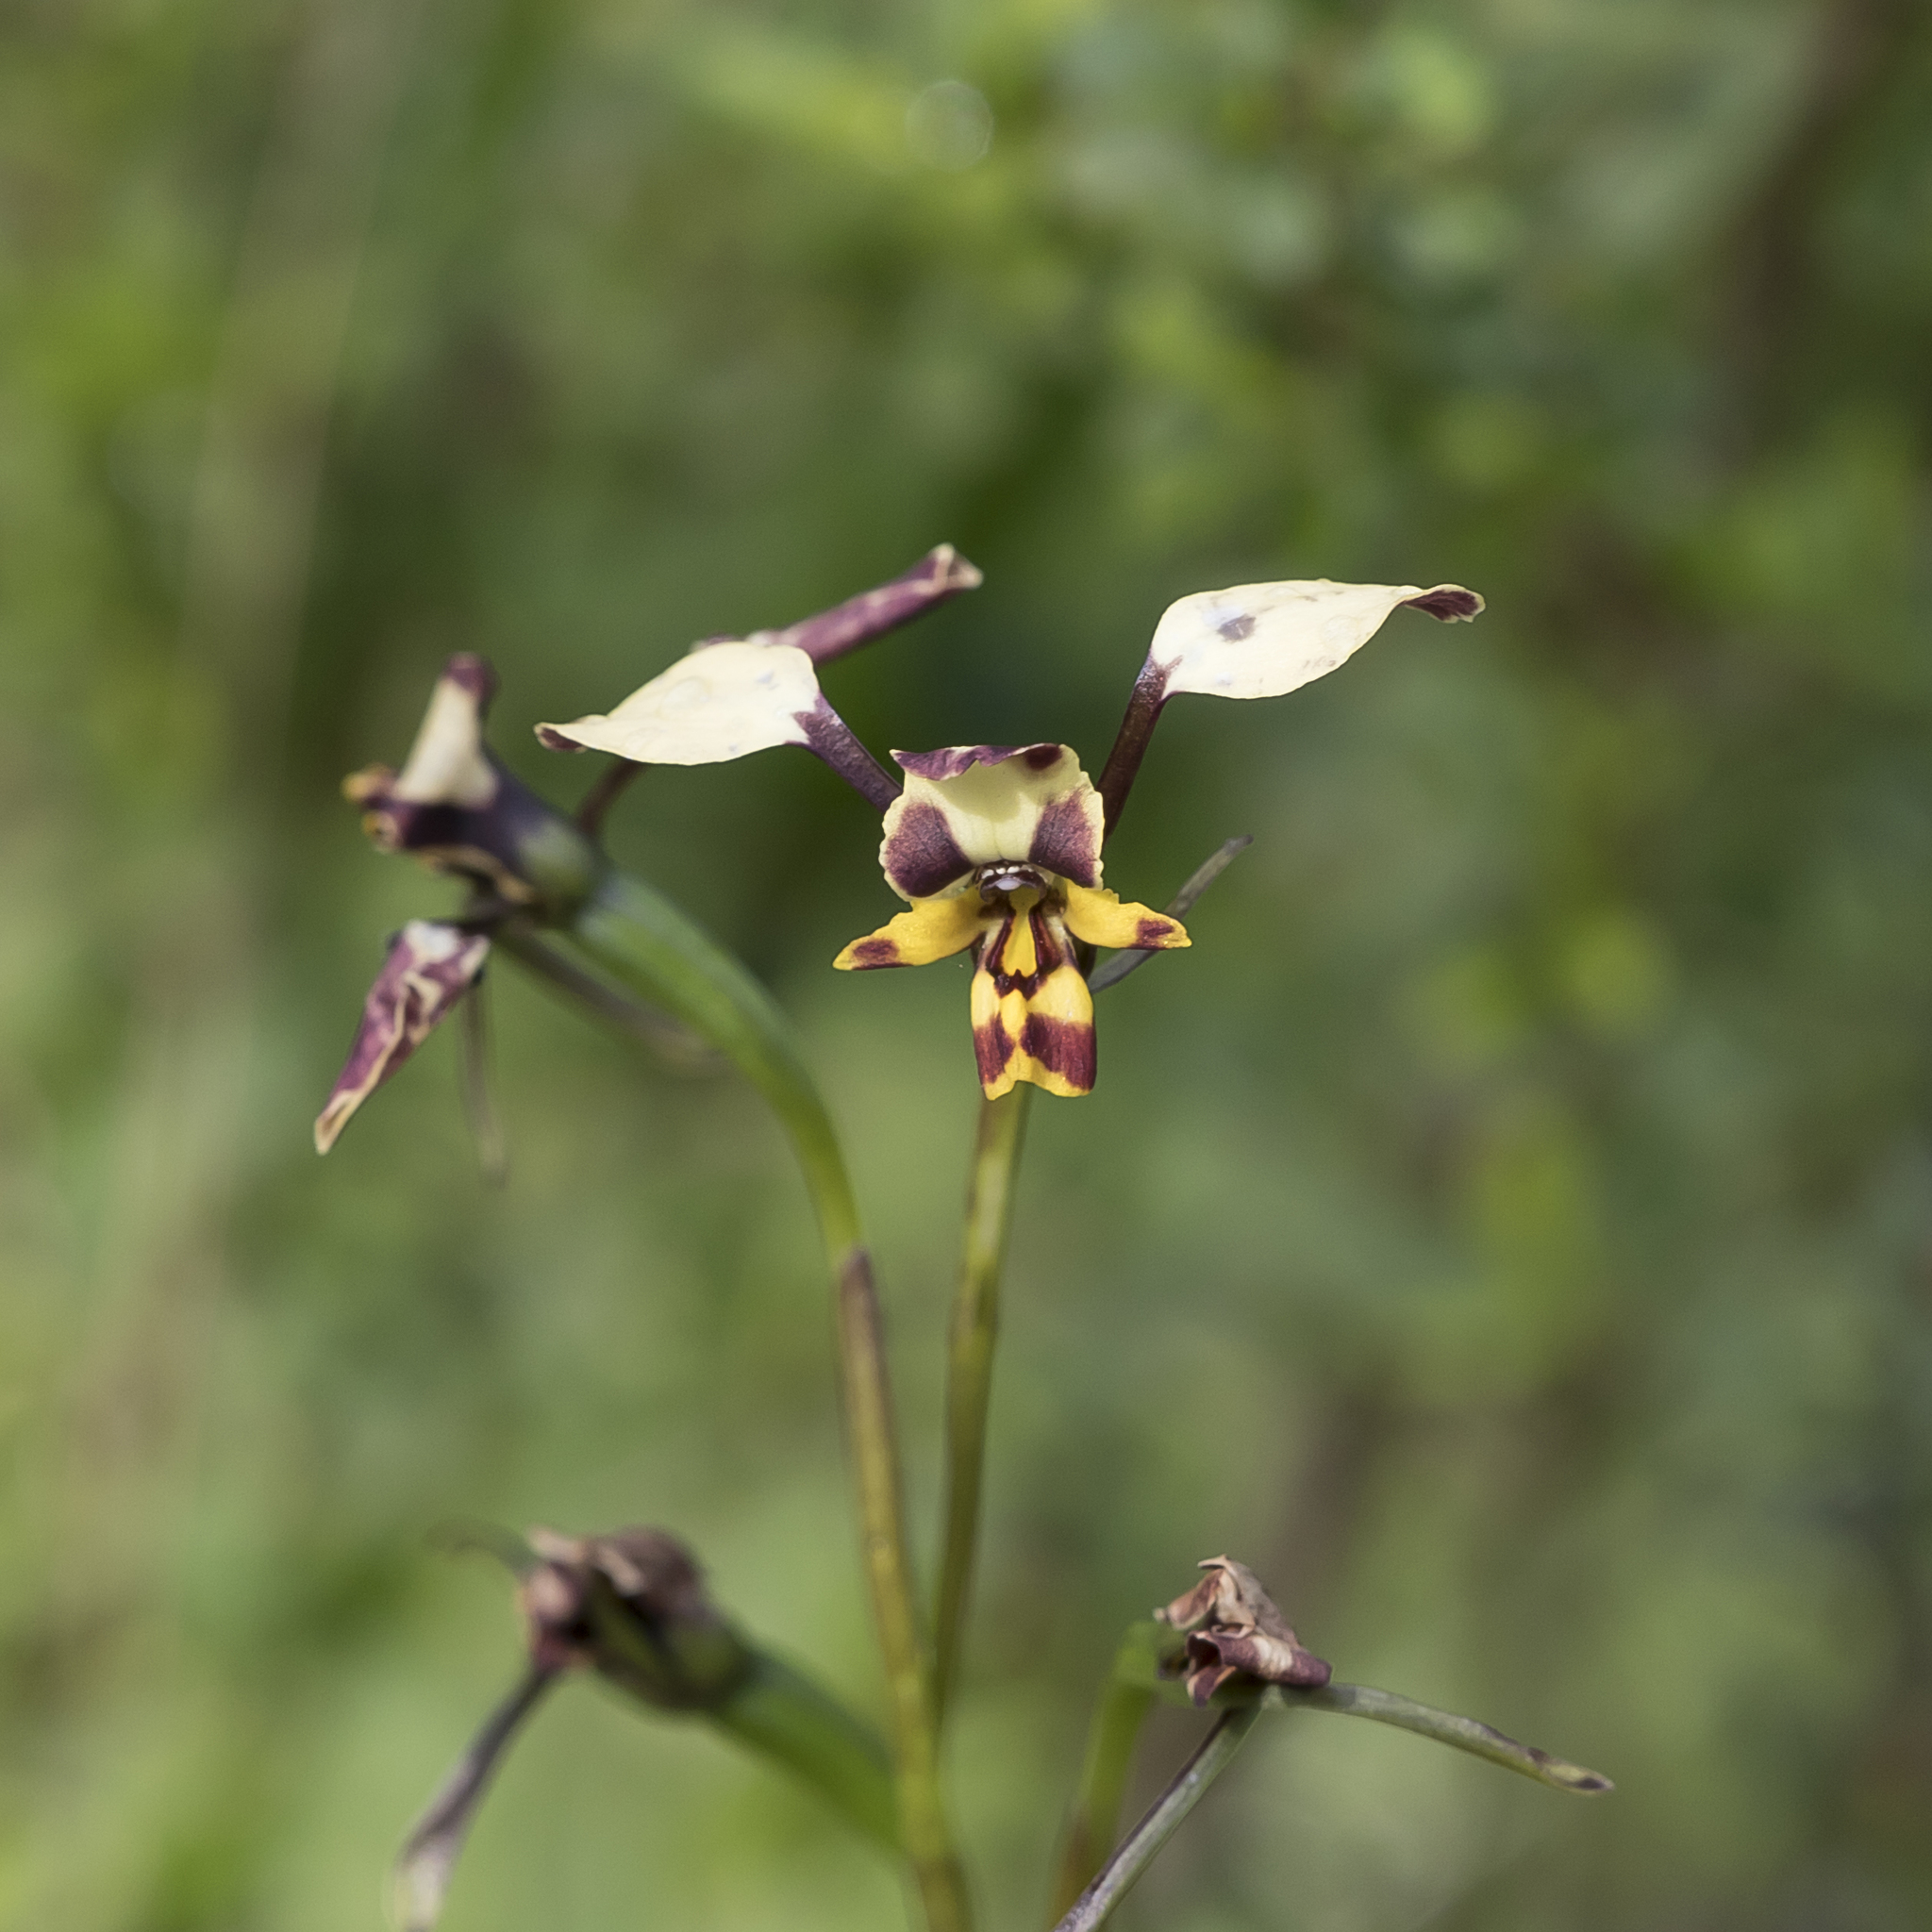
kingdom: Plantae
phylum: Tracheophyta
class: Liliopsida
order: Asparagales
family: Orchidaceae
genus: Diuris
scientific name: Diuris pardina
